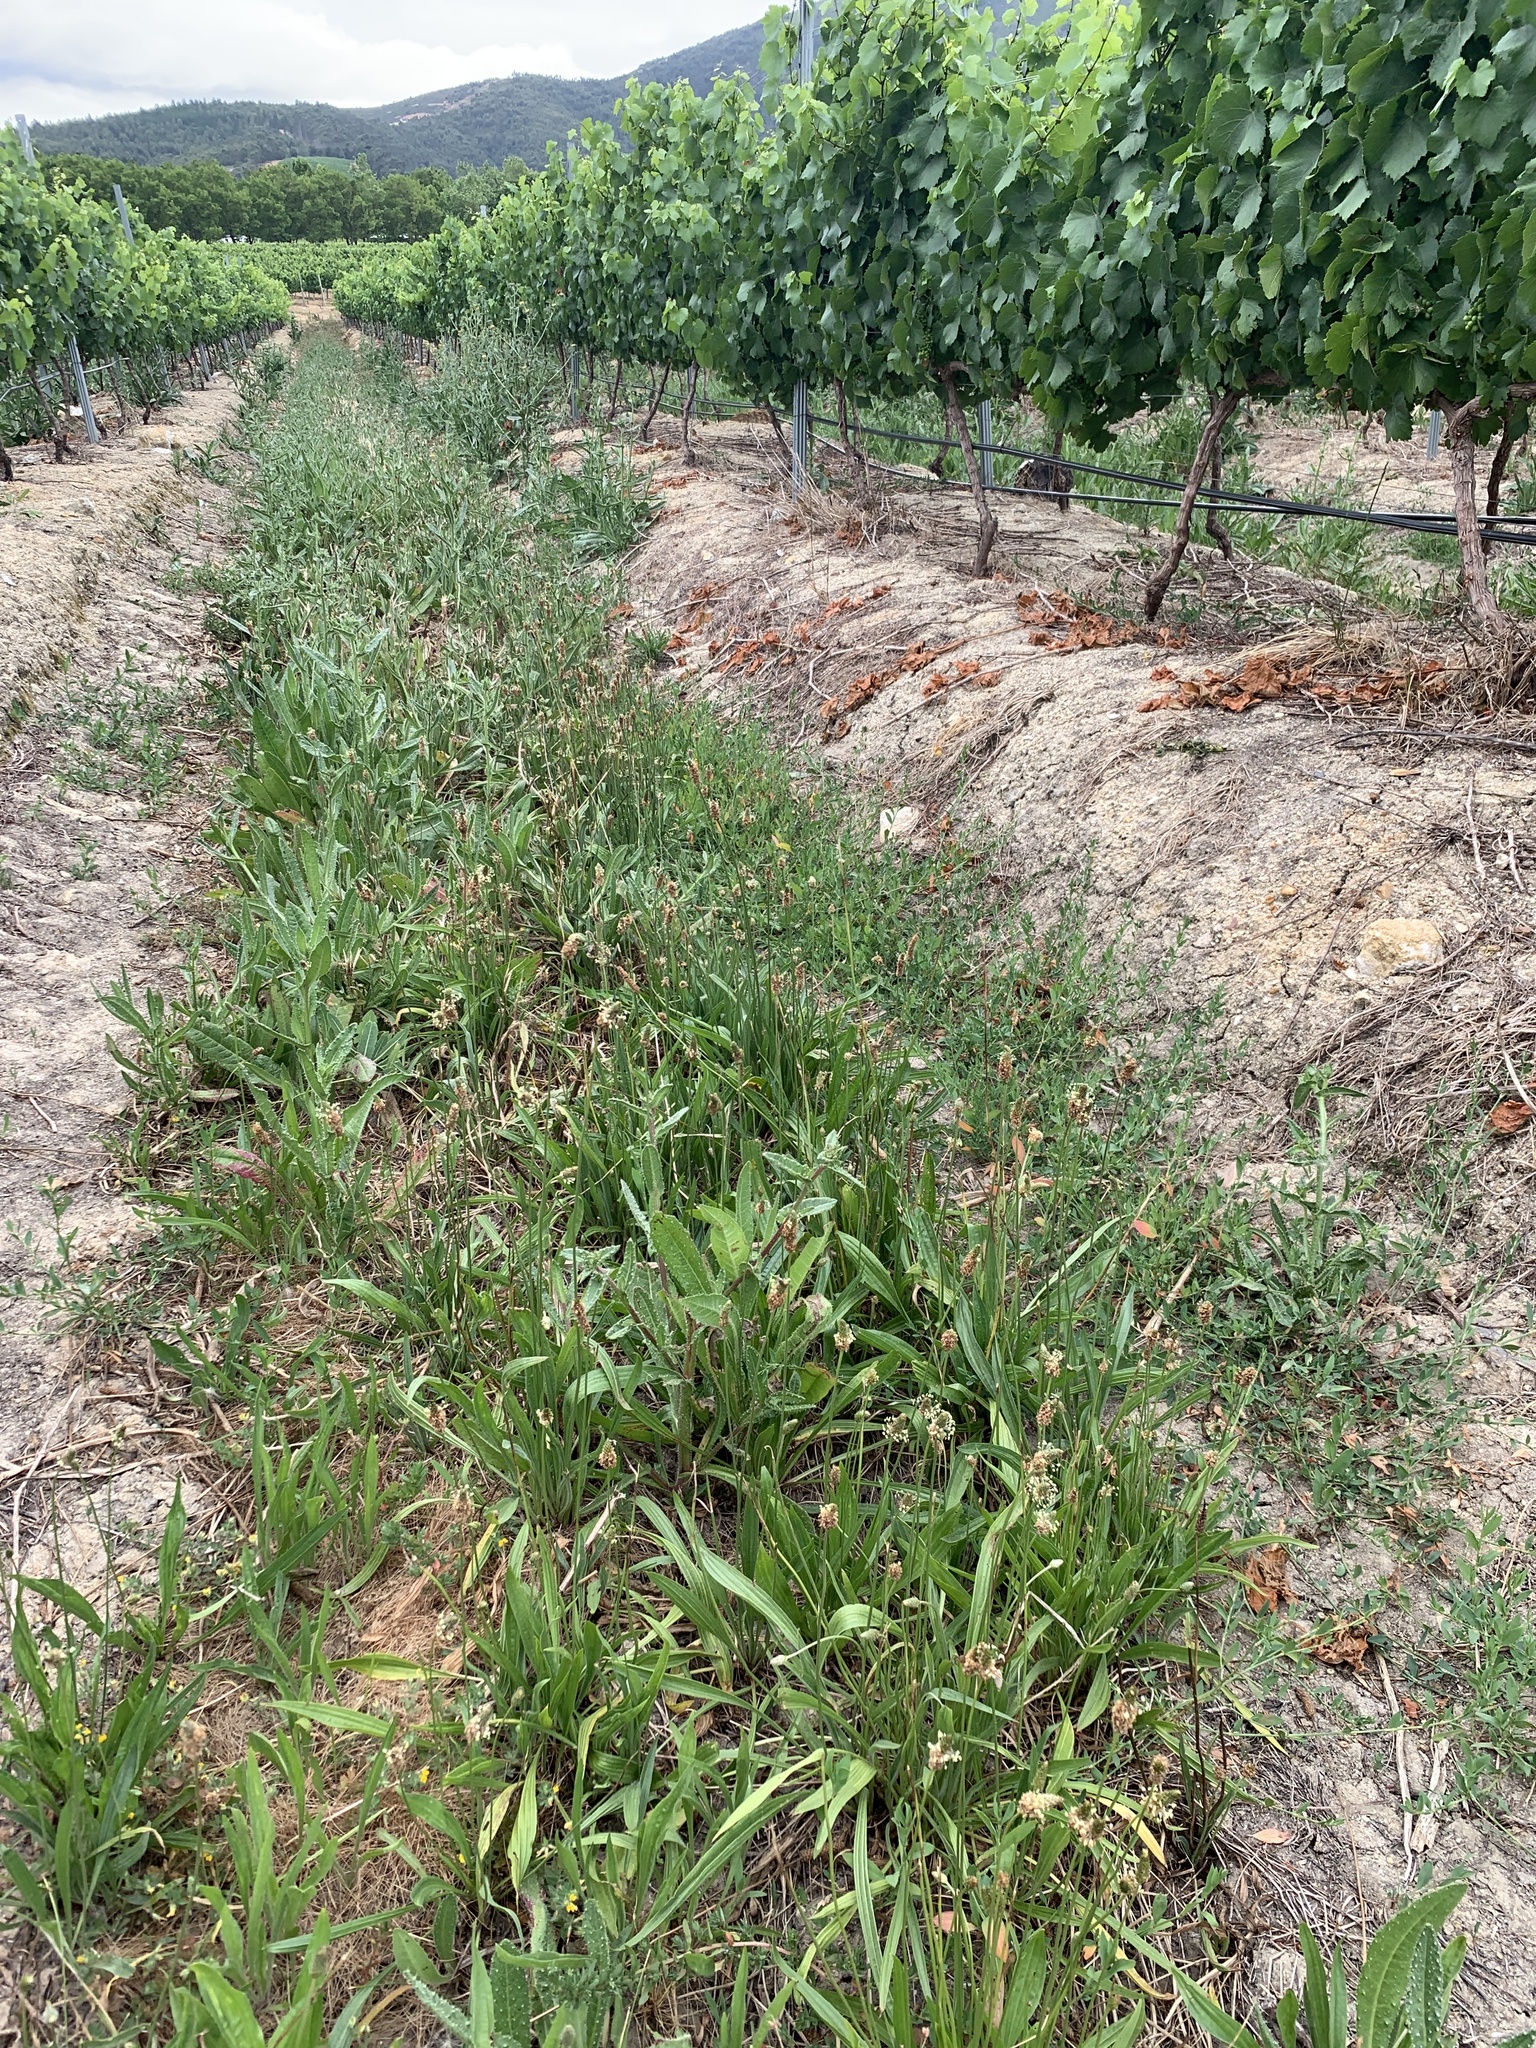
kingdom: Plantae
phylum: Tracheophyta
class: Magnoliopsida
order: Lamiales
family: Plantaginaceae
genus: Plantago
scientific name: Plantago lanceolata
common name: Ribwort plantain
